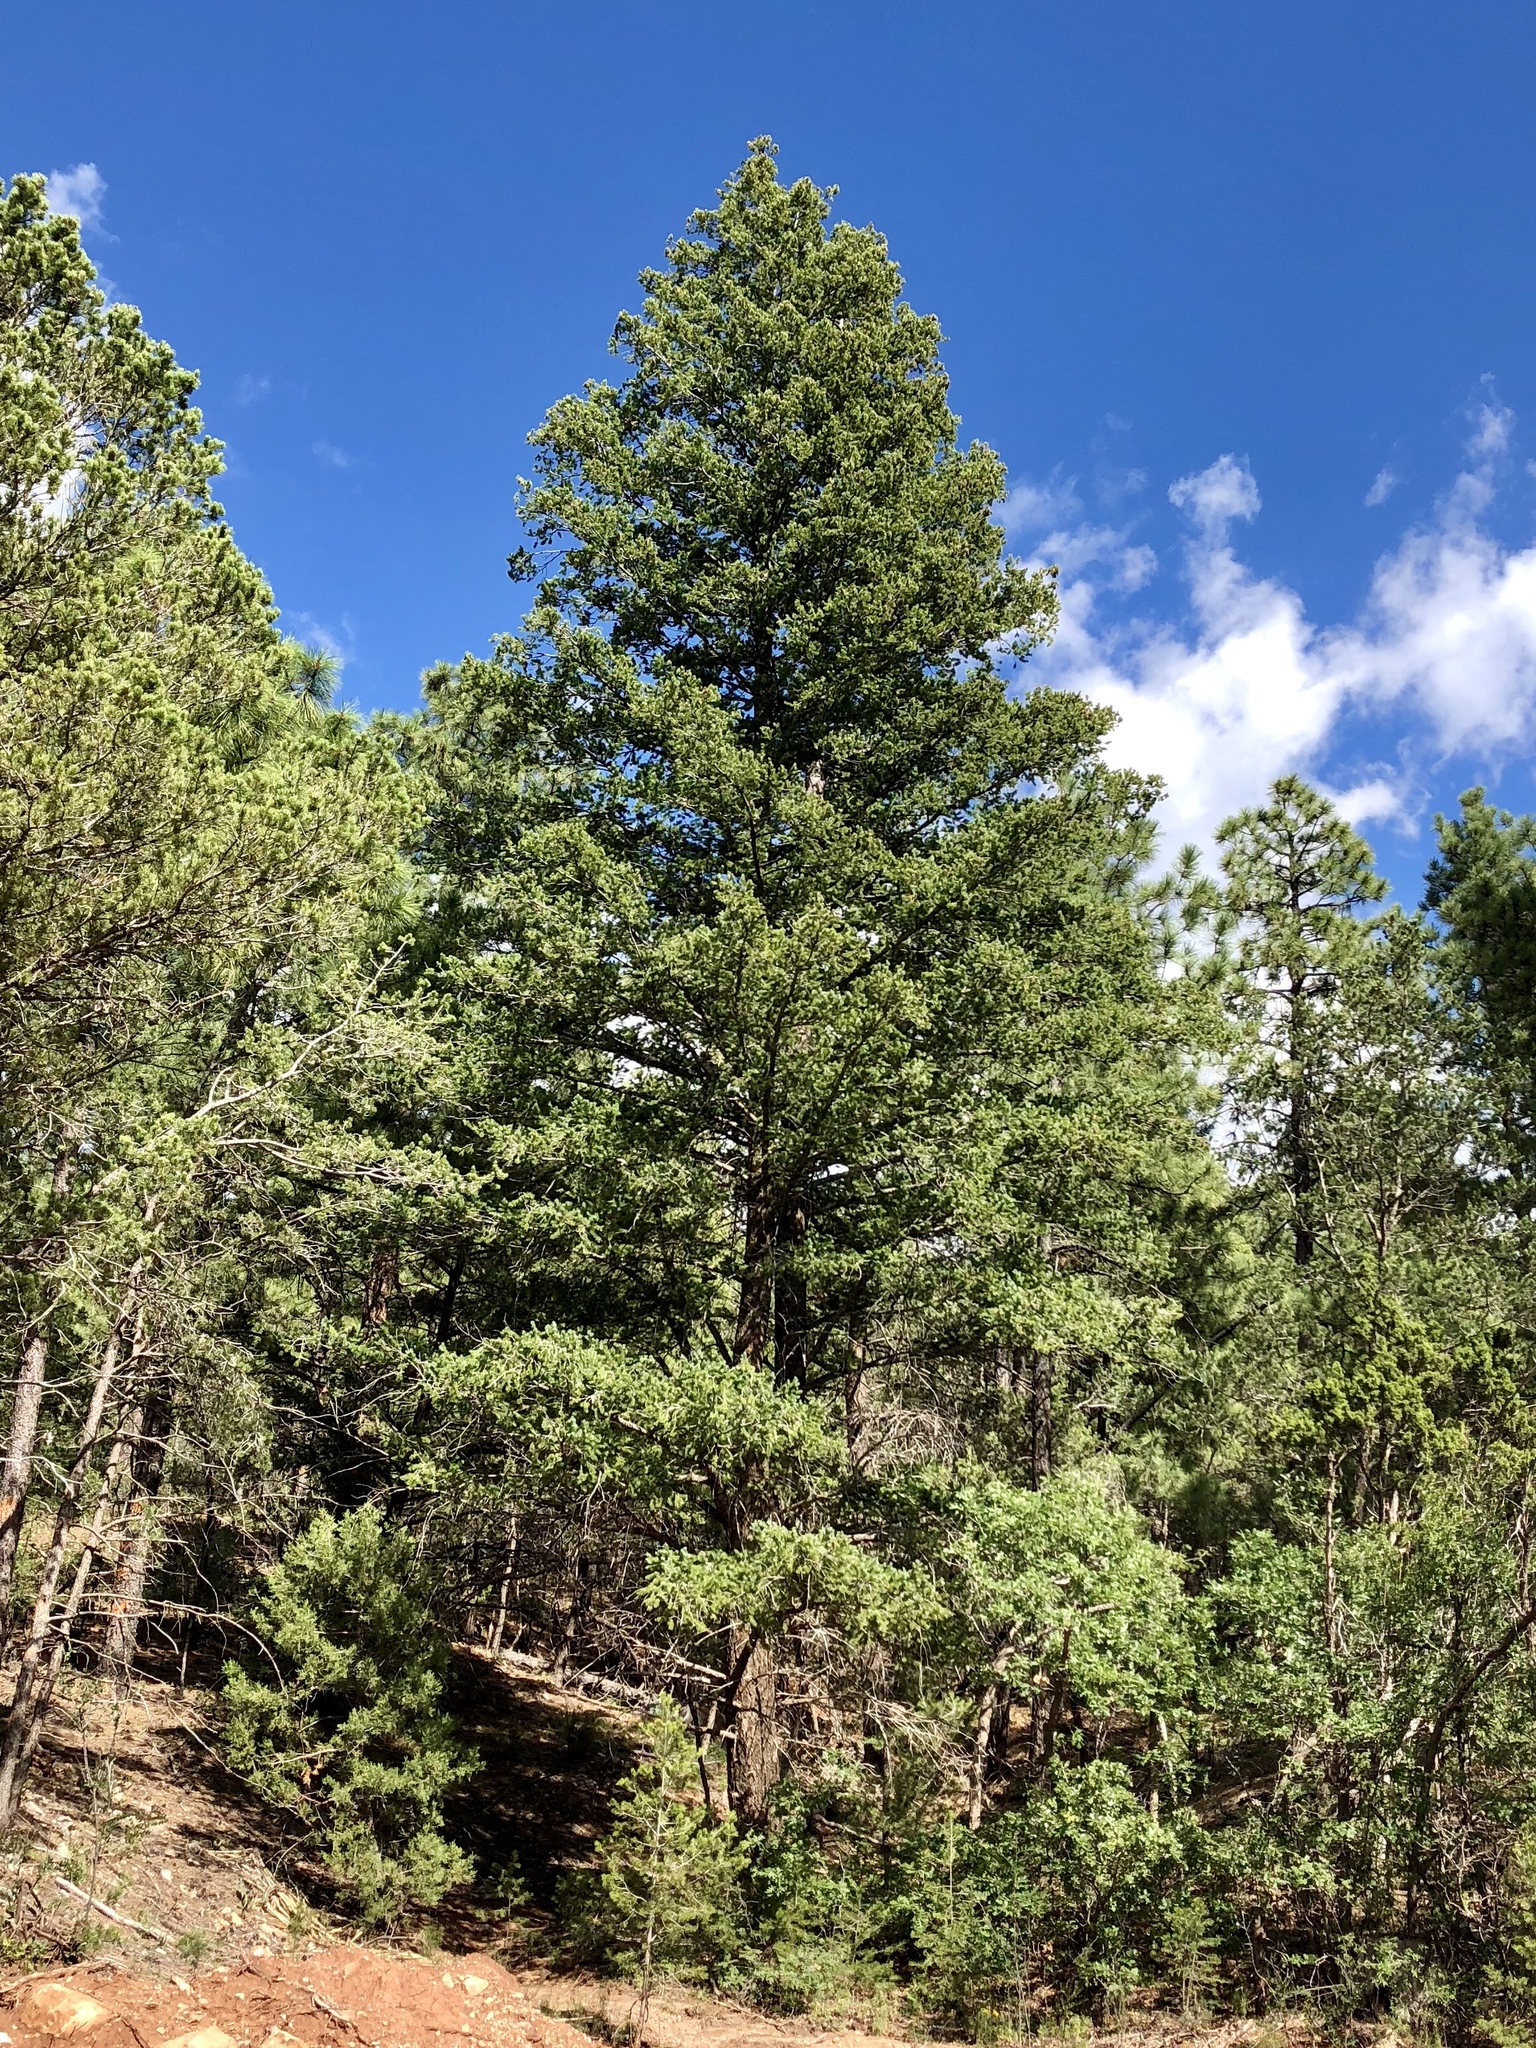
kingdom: Plantae
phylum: Tracheophyta
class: Pinopsida
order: Pinales
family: Pinaceae
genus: Pseudotsuga
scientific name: Pseudotsuga menziesii
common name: Douglas fir
